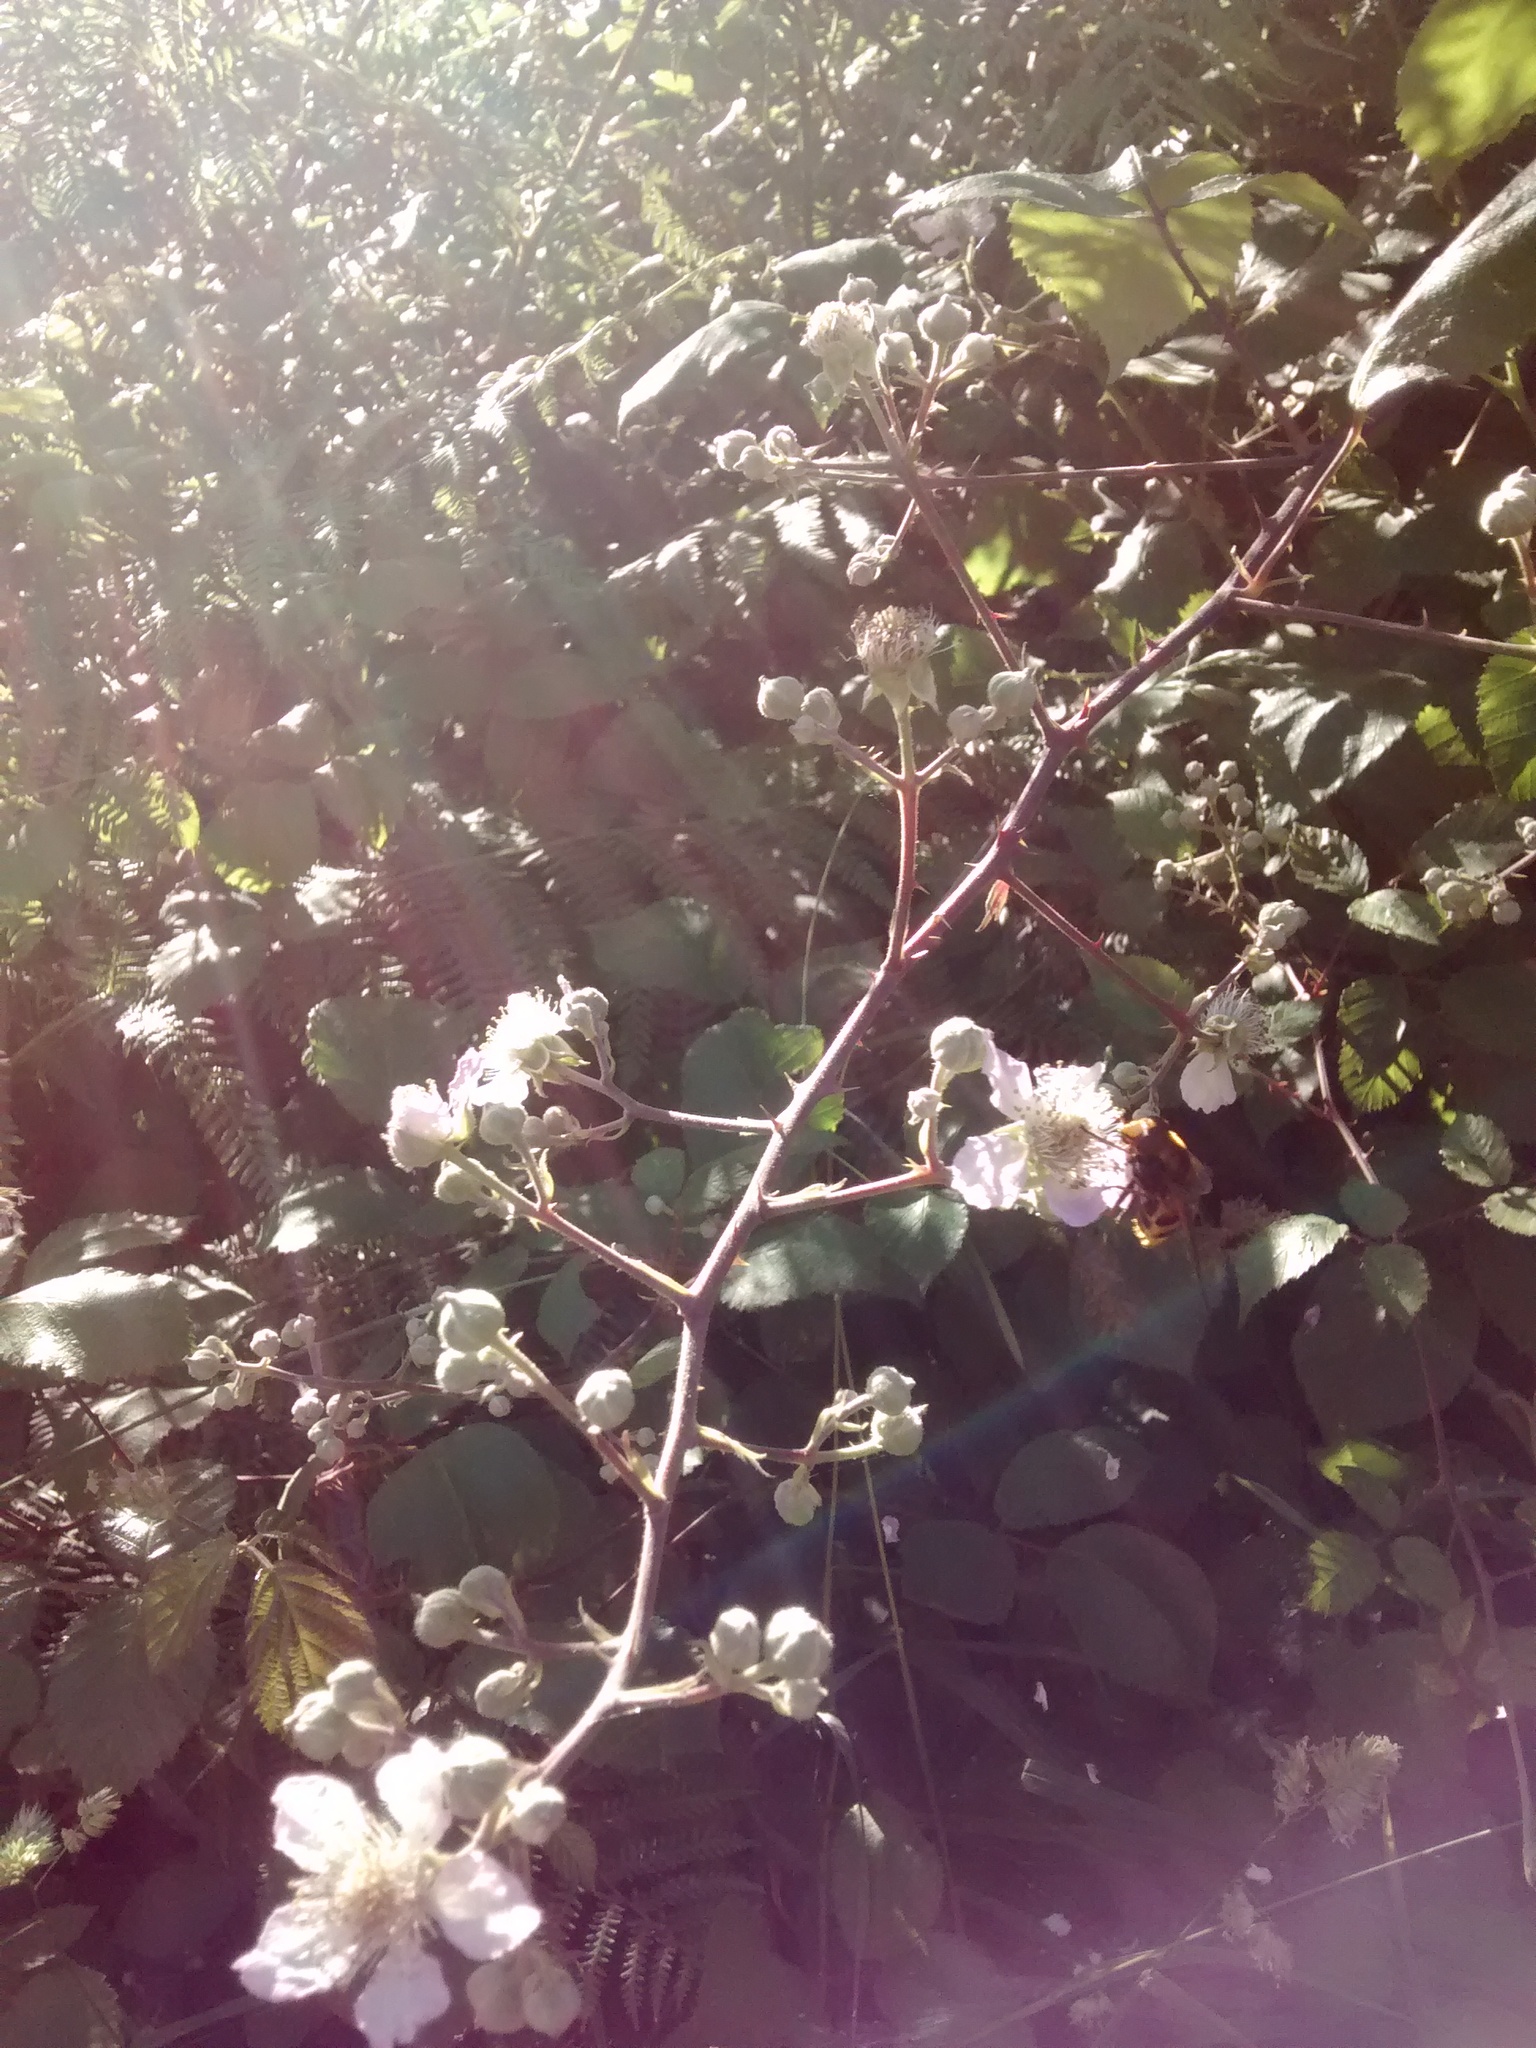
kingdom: Animalia
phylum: Arthropoda
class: Insecta
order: Diptera
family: Syrphidae
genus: Volucella
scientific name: Volucella zonaria
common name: Hornet hoverfly
